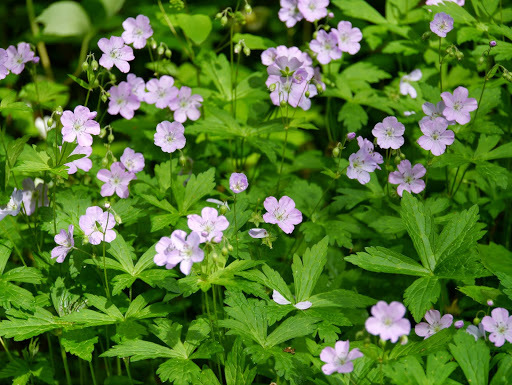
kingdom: Plantae
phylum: Tracheophyta
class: Magnoliopsida
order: Geraniales
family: Geraniaceae
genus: Geranium
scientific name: Geranium maculatum
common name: Spotted geranium
